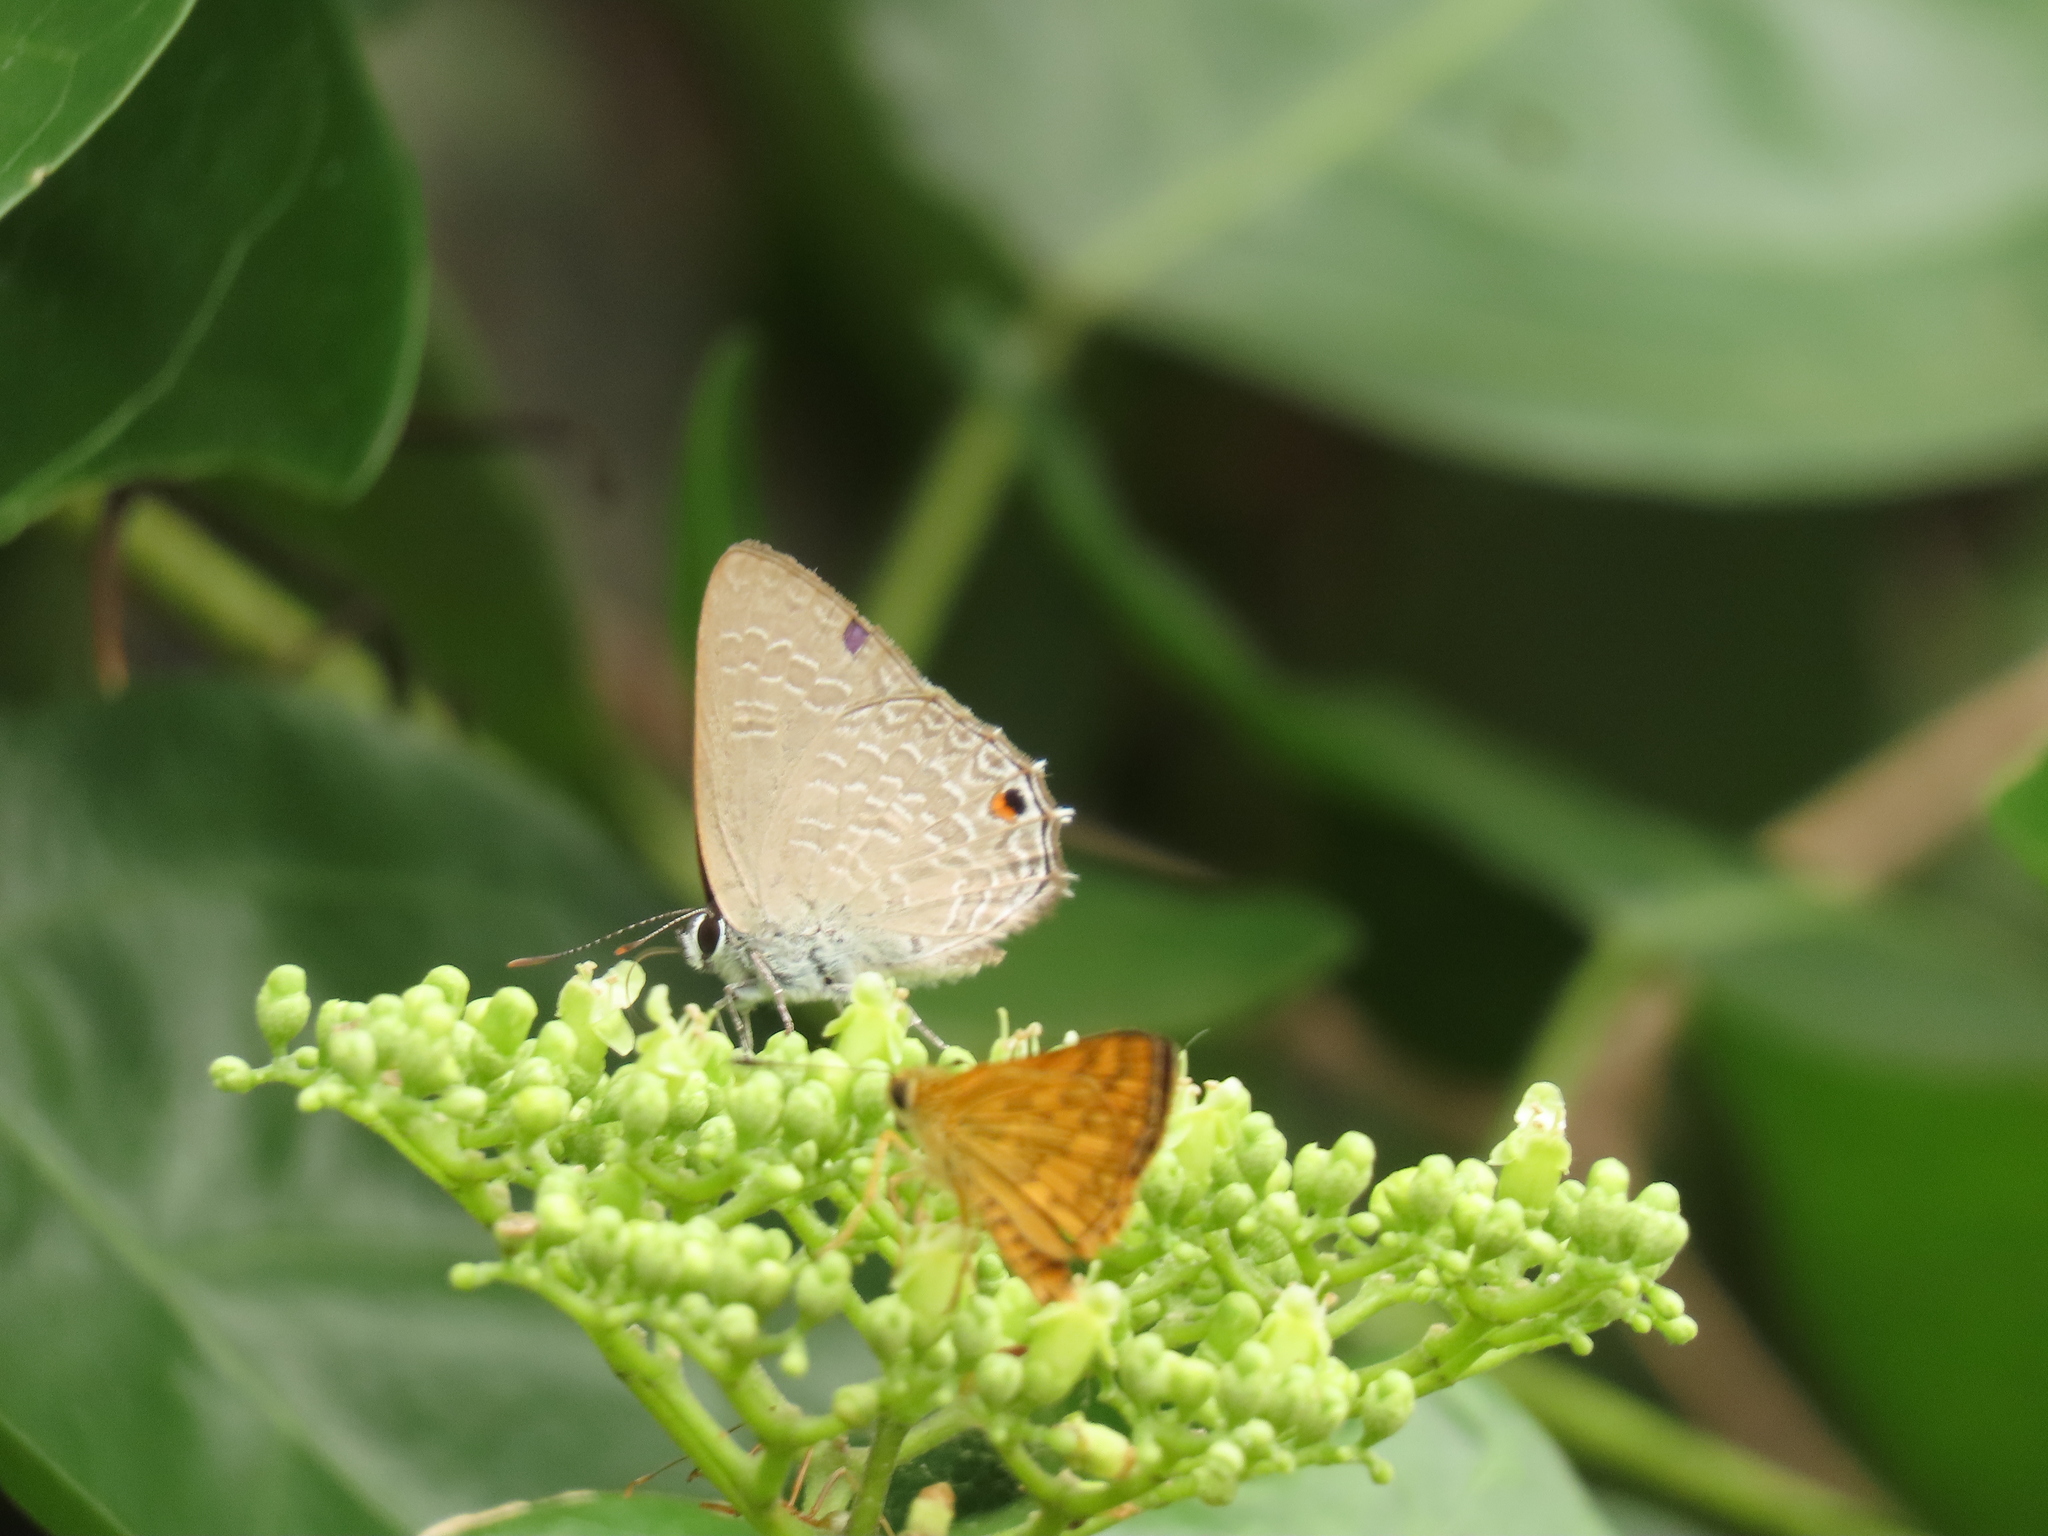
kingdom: Animalia
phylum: Arthropoda
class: Insecta
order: Lepidoptera
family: Lycaenidae
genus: Hypolycaena
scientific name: Hypolycaena phorbas
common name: Black-spotted flash
